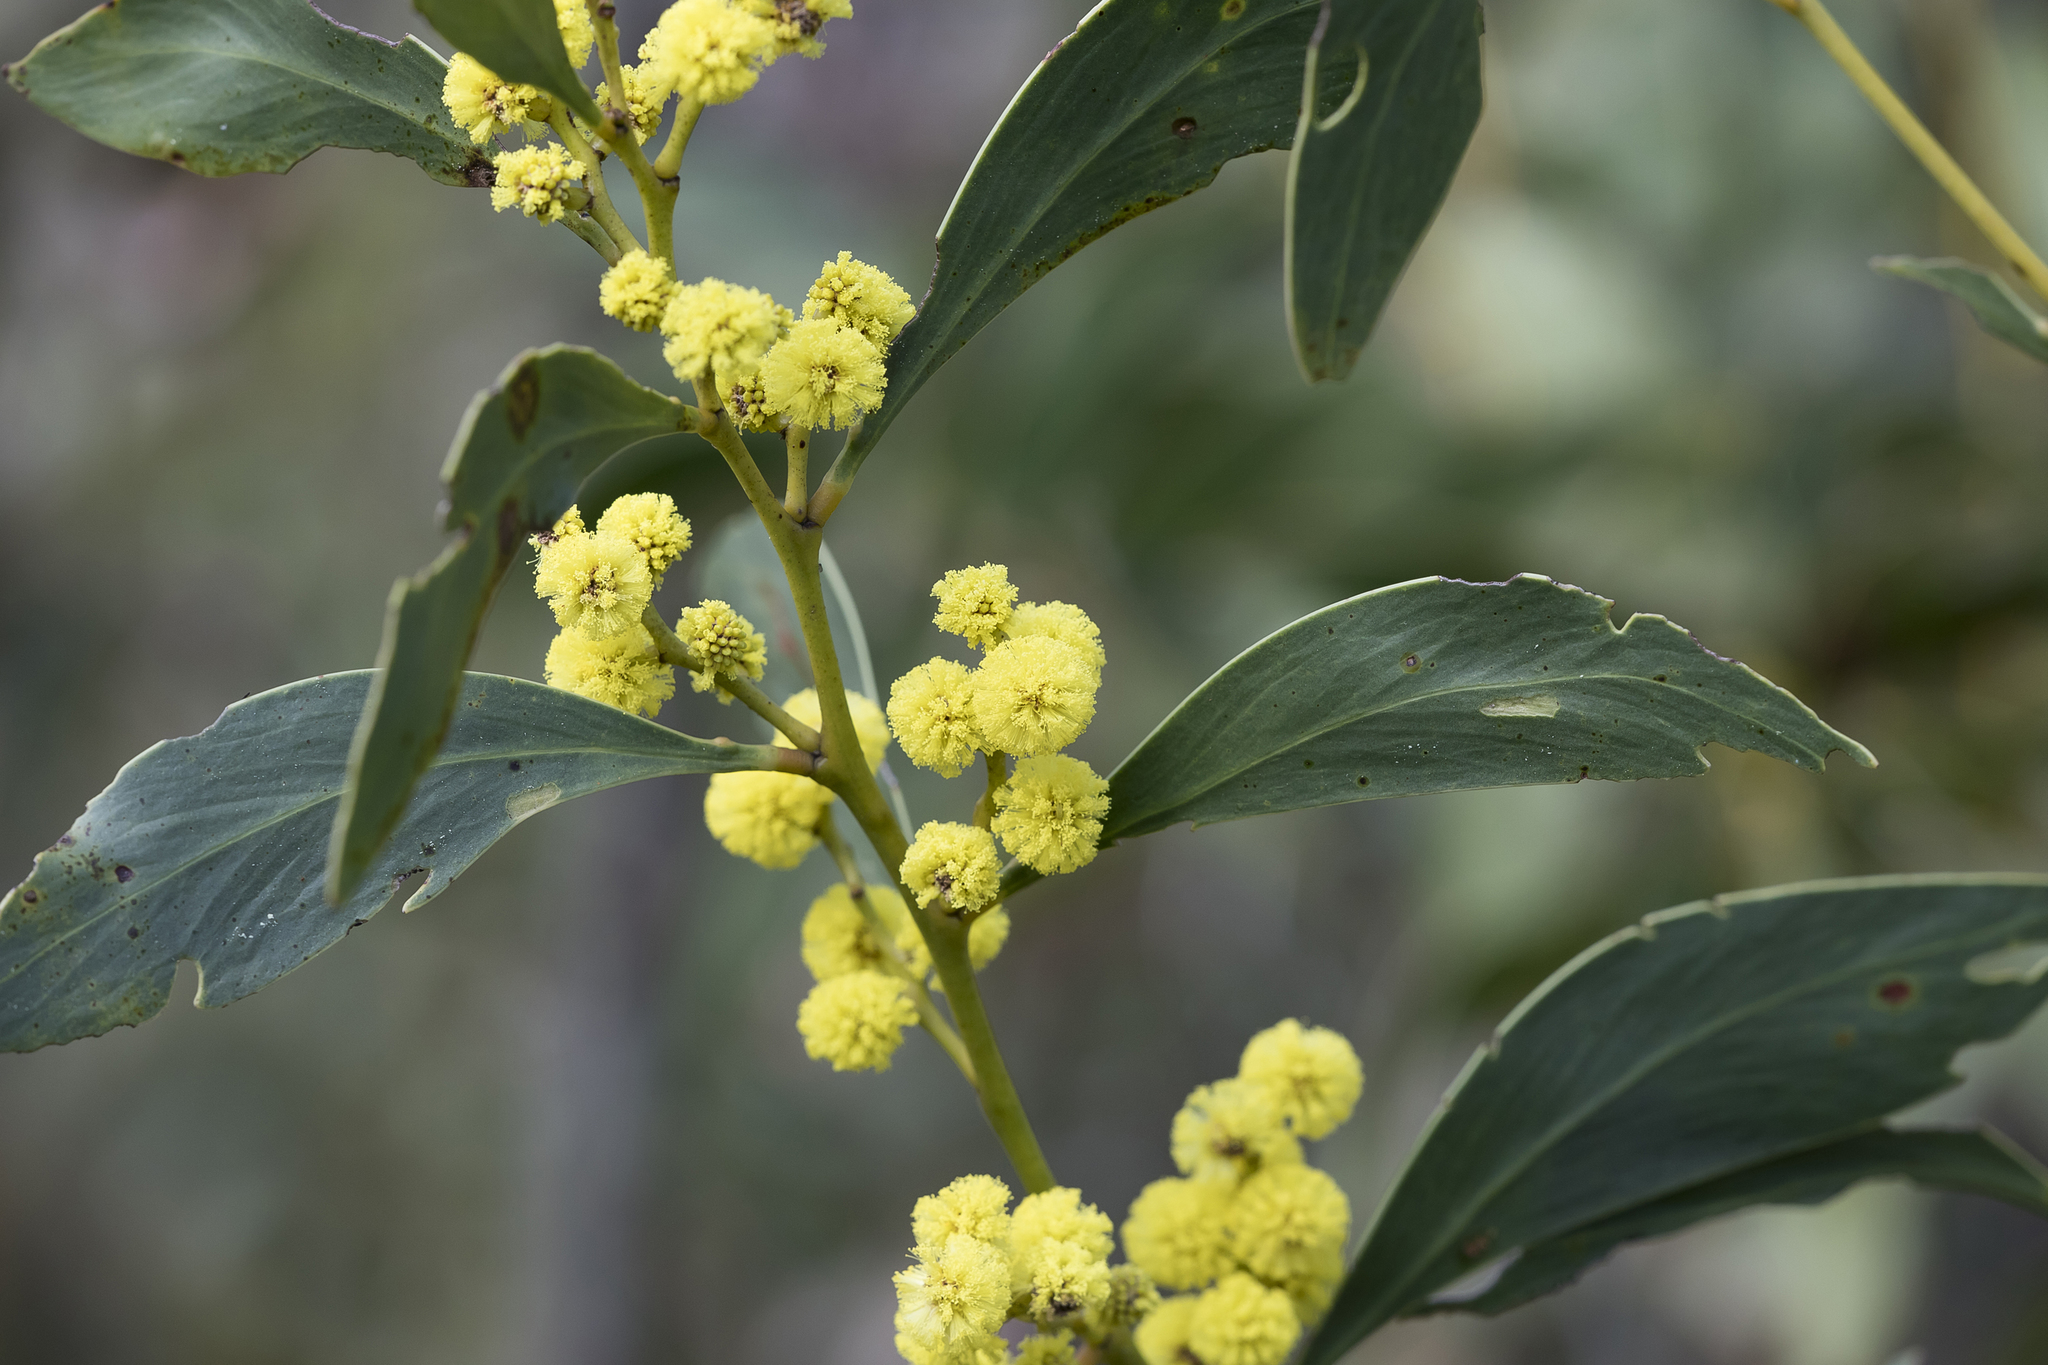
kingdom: Plantae
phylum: Tracheophyta
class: Magnoliopsida
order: Fabales
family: Fabaceae
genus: Acacia
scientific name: Acacia pycnantha
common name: Golden wattle
